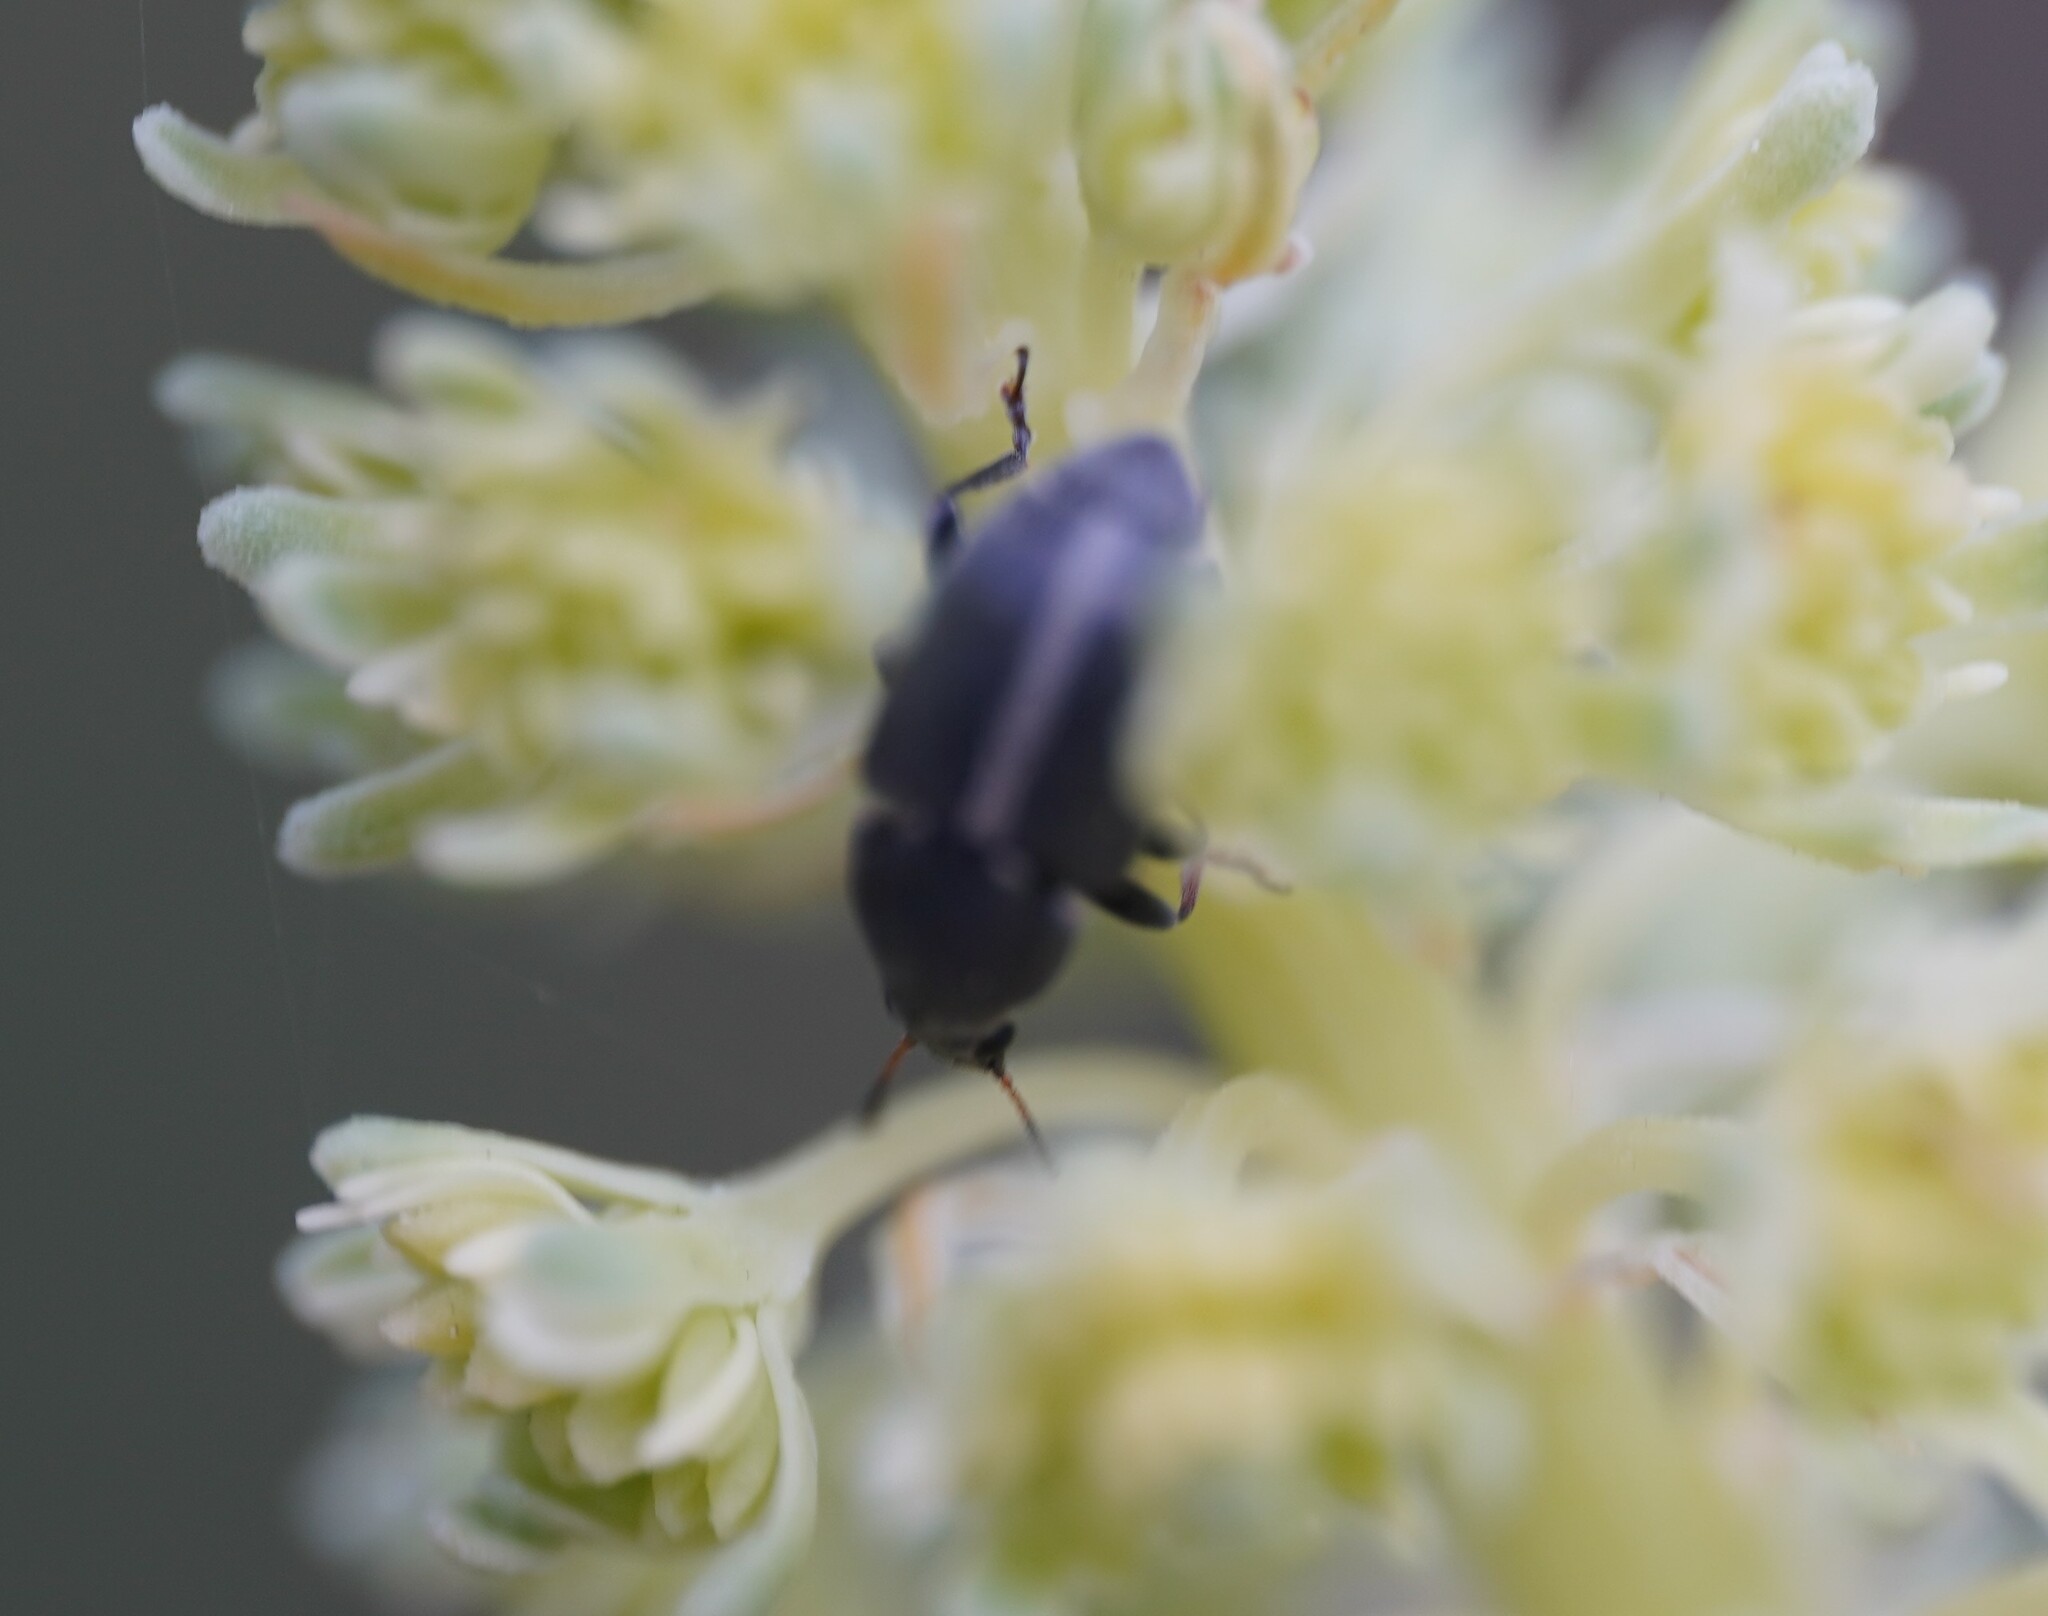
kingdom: Animalia
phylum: Arthropoda
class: Insecta
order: Coleoptera
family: Anthribidae
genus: Bruchela
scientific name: Bruchela suturalis
